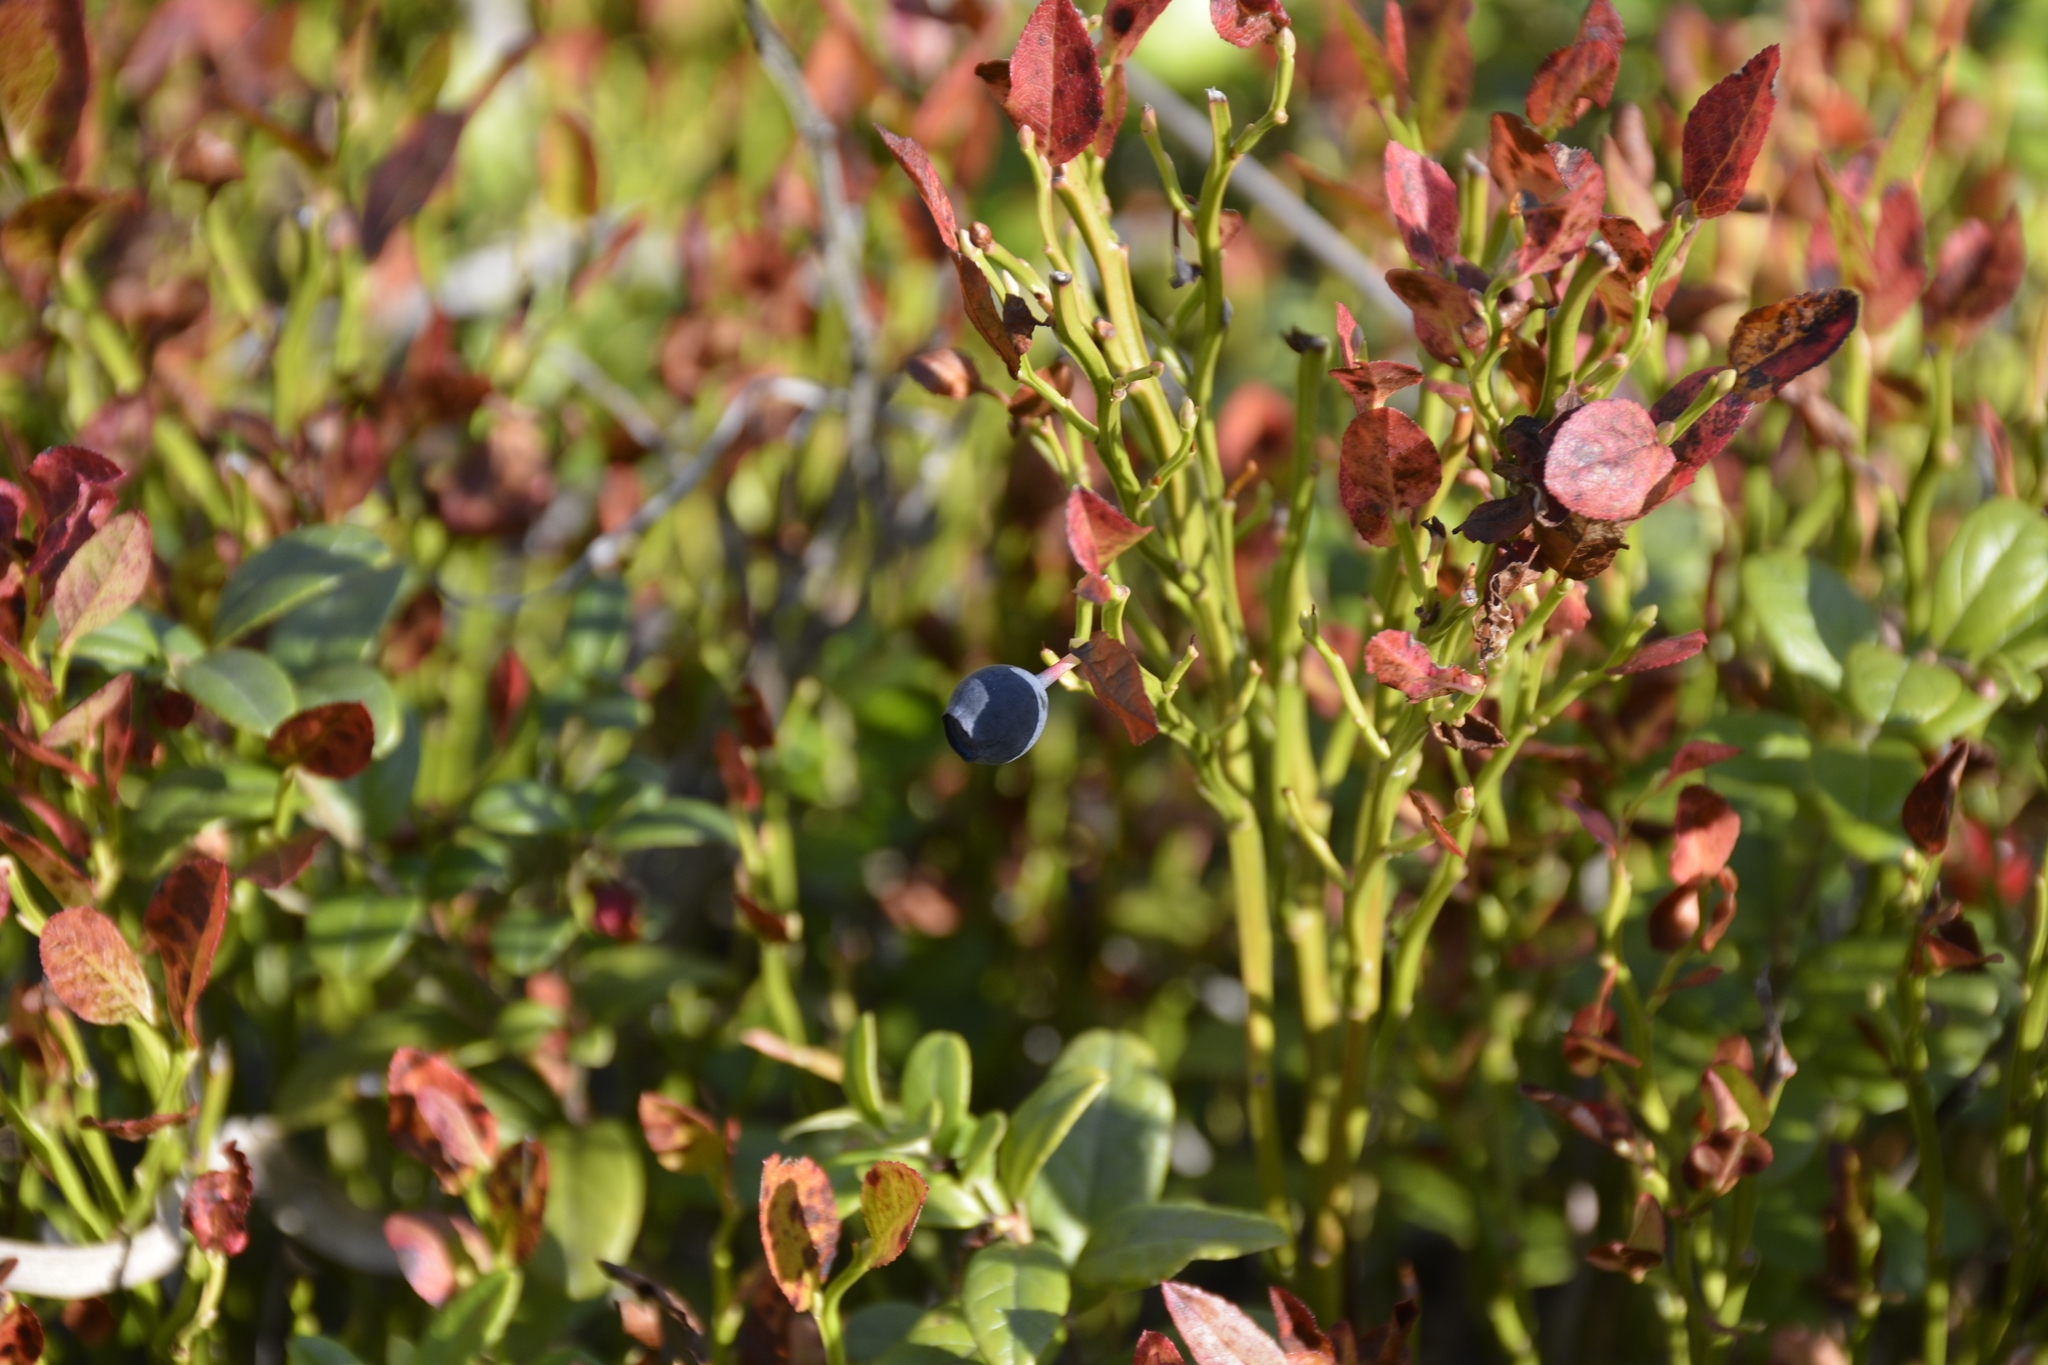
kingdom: Plantae
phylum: Tracheophyta
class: Magnoliopsida
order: Ericales
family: Ericaceae
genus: Vaccinium
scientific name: Vaccinium myrtillus
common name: Bilberry
